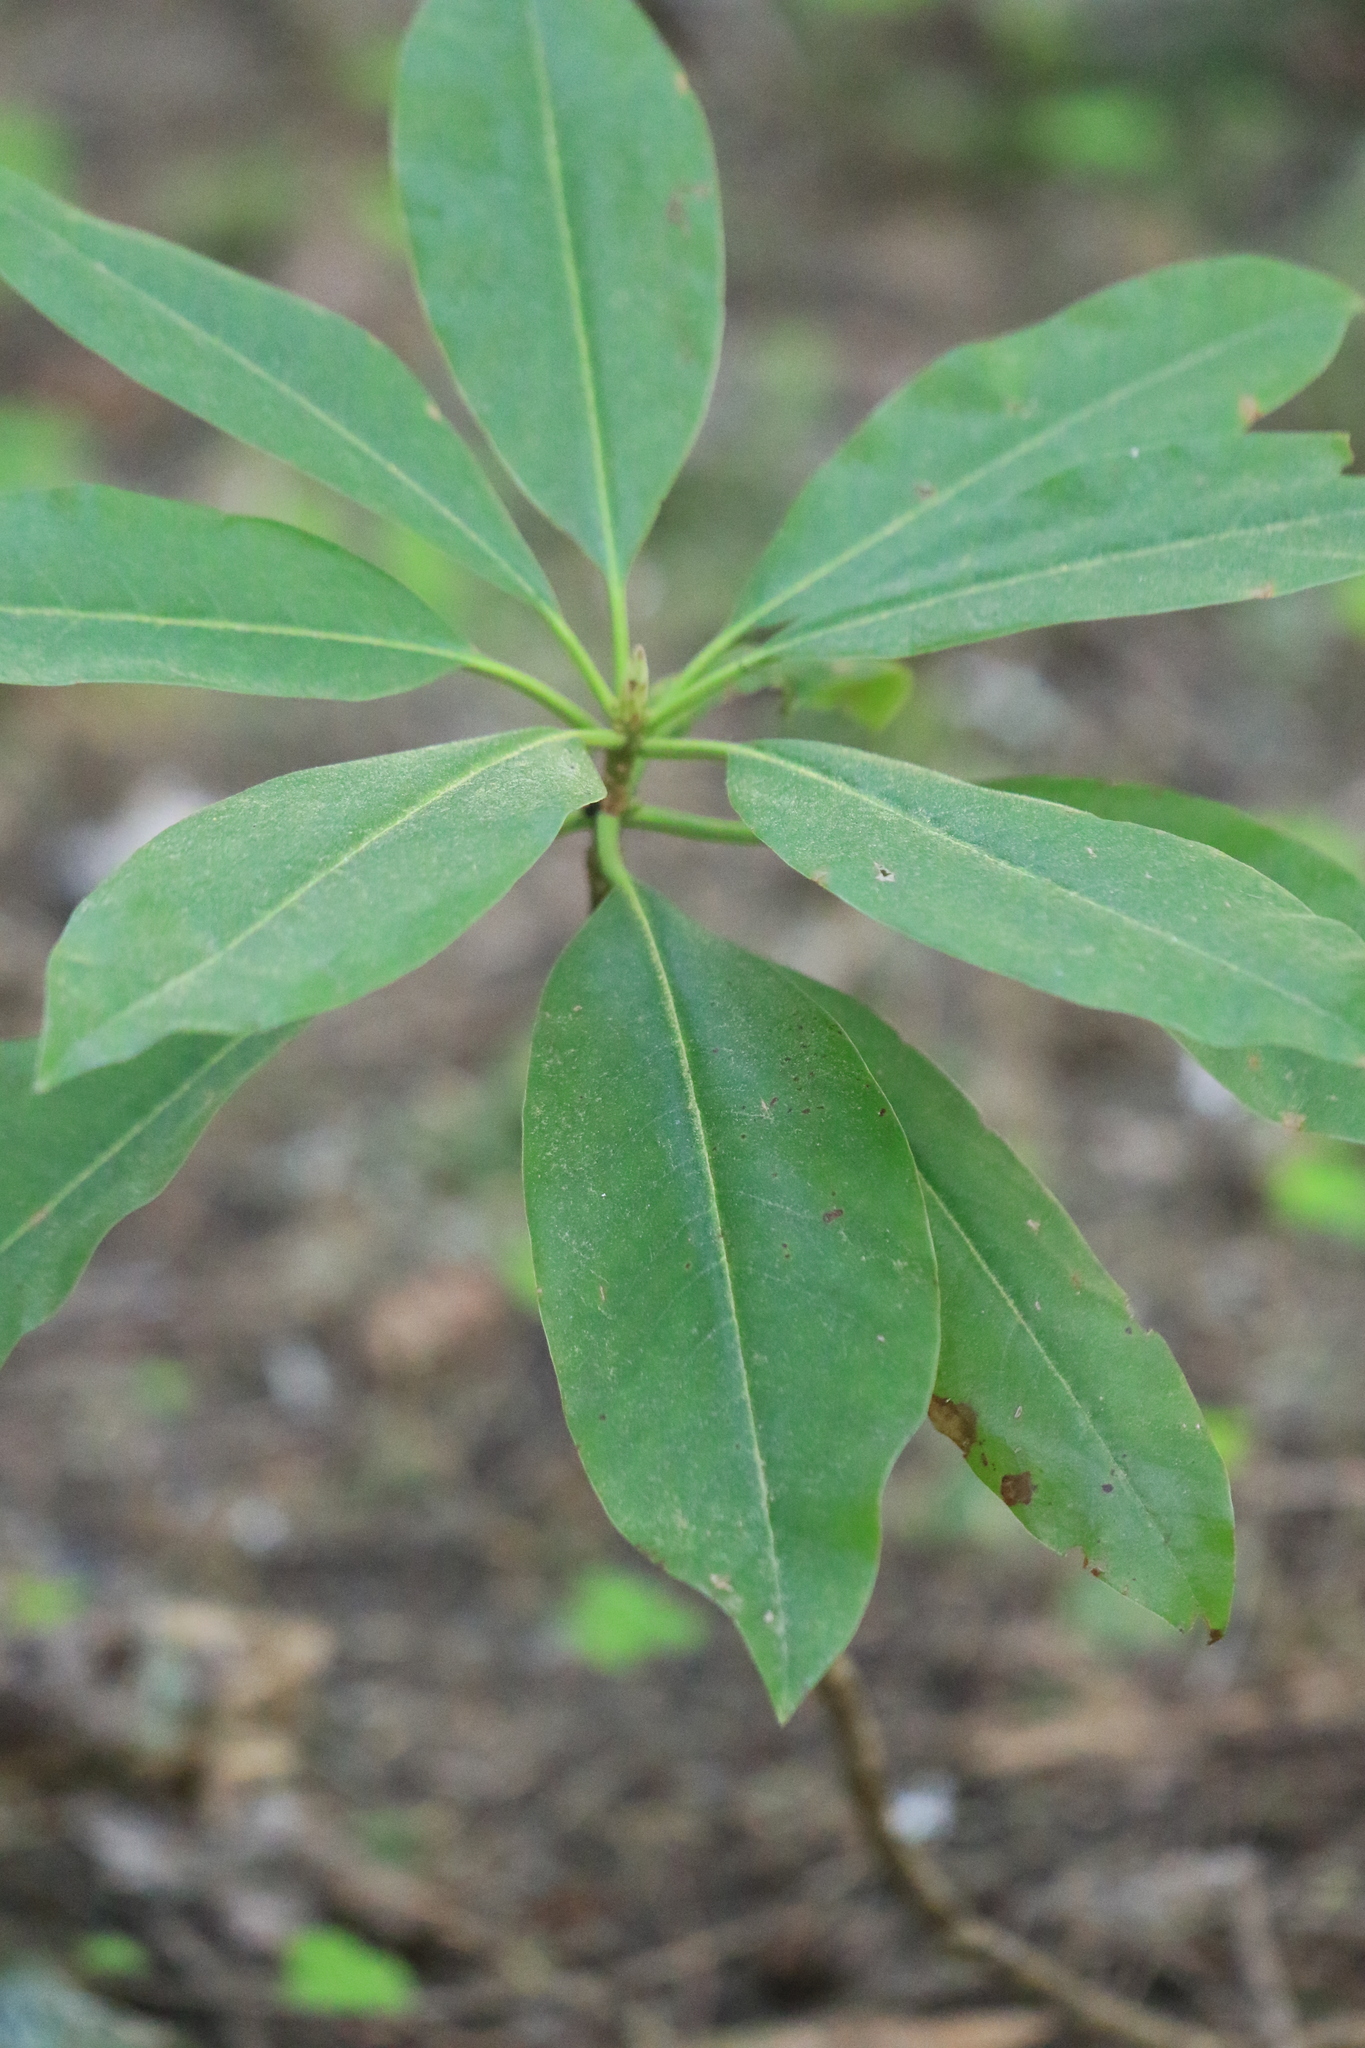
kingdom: Plantae
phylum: Tracheophyta
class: Magnoliopsida
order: Ericales
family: Ericaceae
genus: Rhododendron
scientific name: Rhododendron macrophyllum
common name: California rose bay
